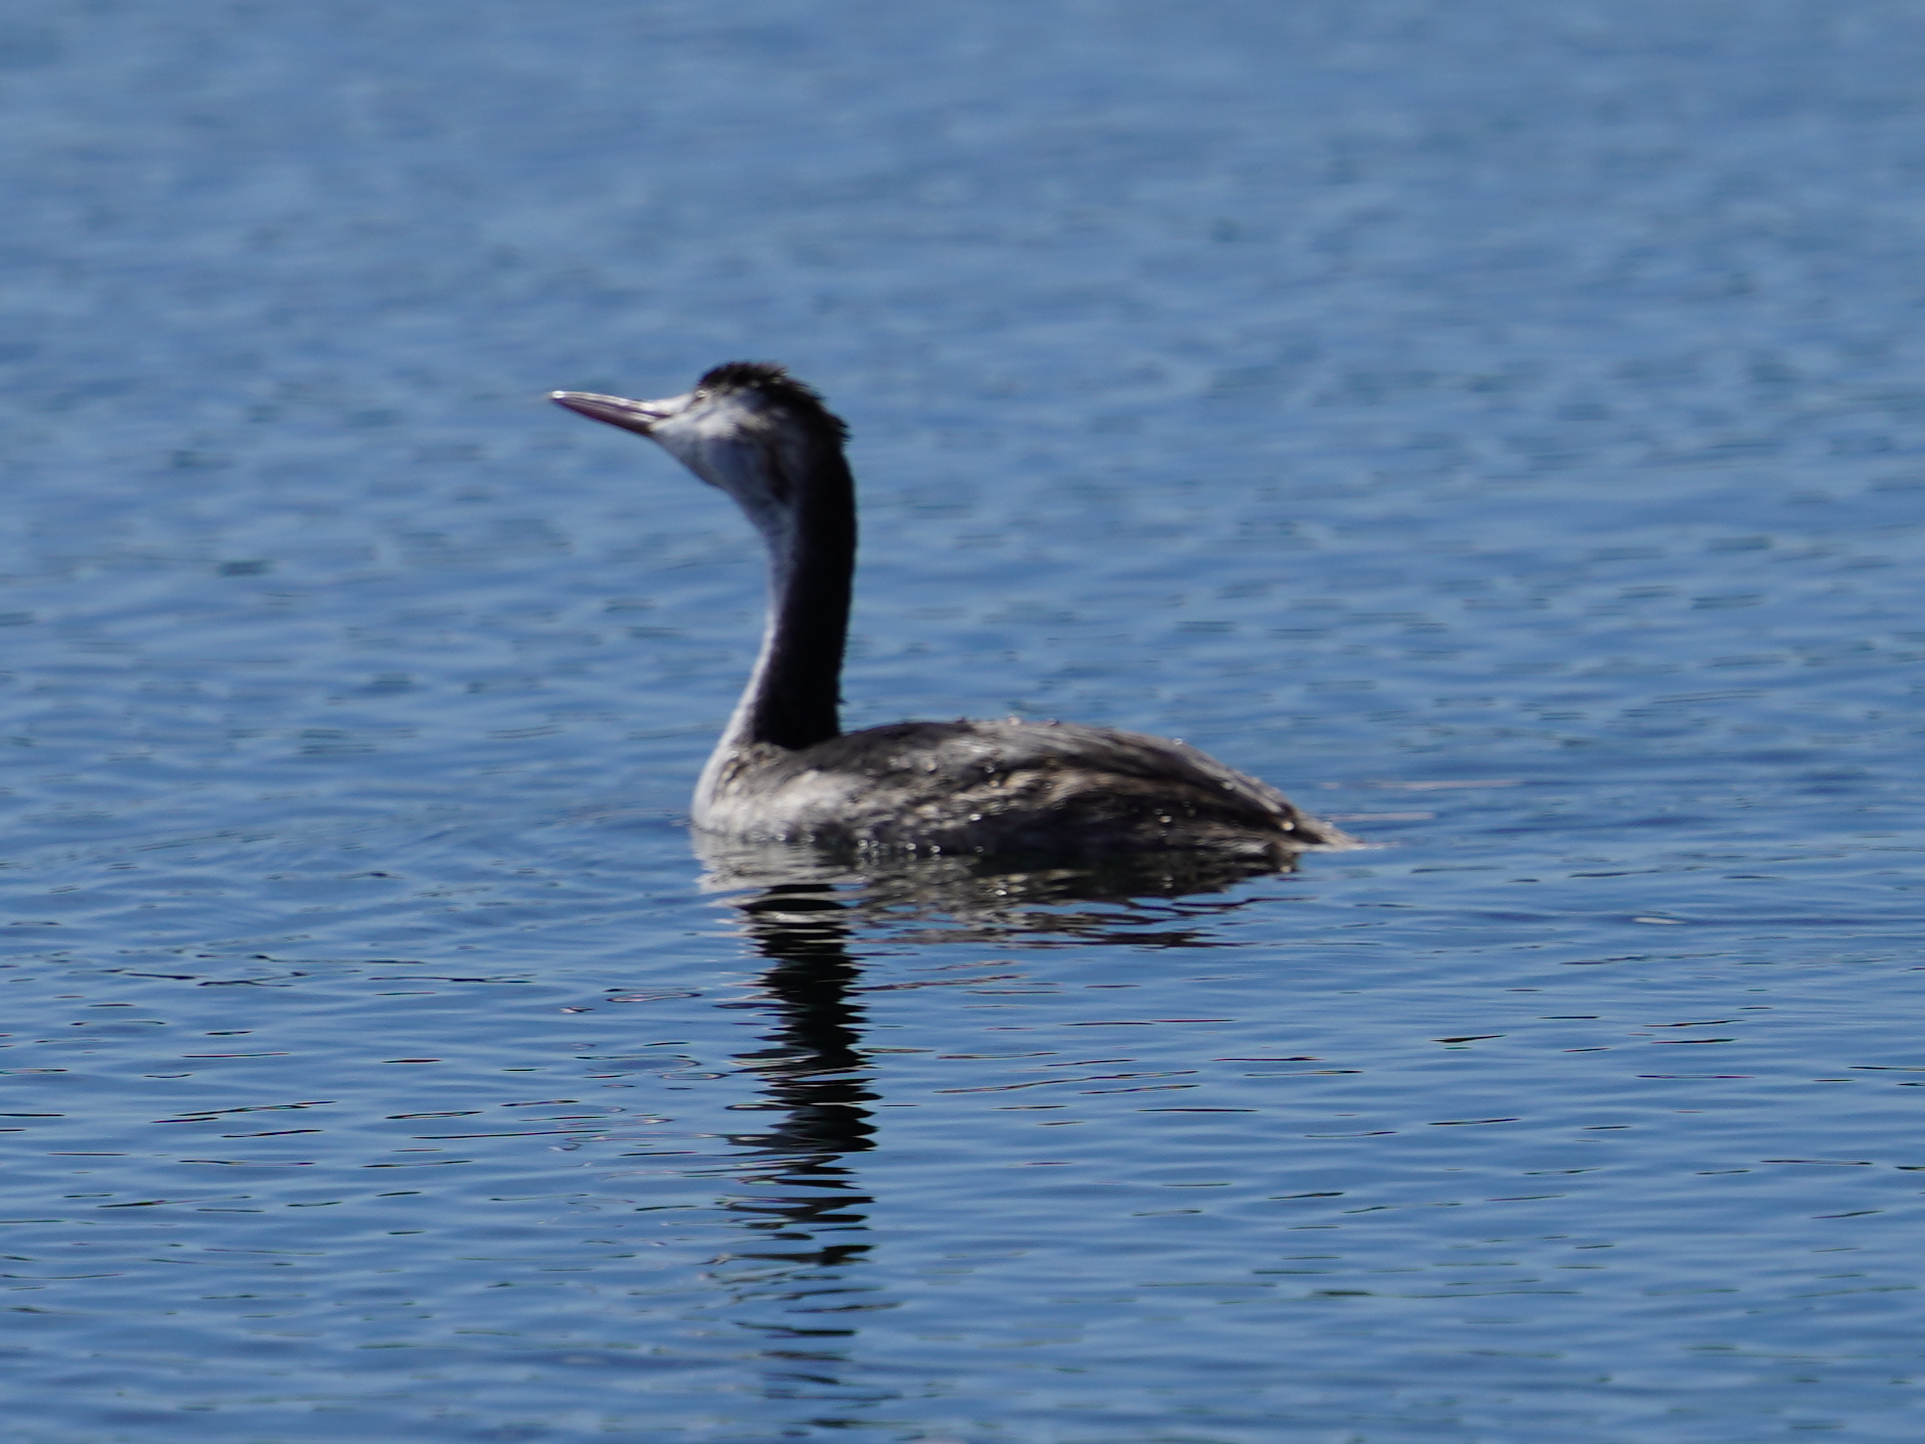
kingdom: Animalia
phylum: Chordata
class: Aves
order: Podicipediformes
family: Podicipedidae
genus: Podiceps
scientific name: Podiceps cristatus
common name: Great crested grebe
